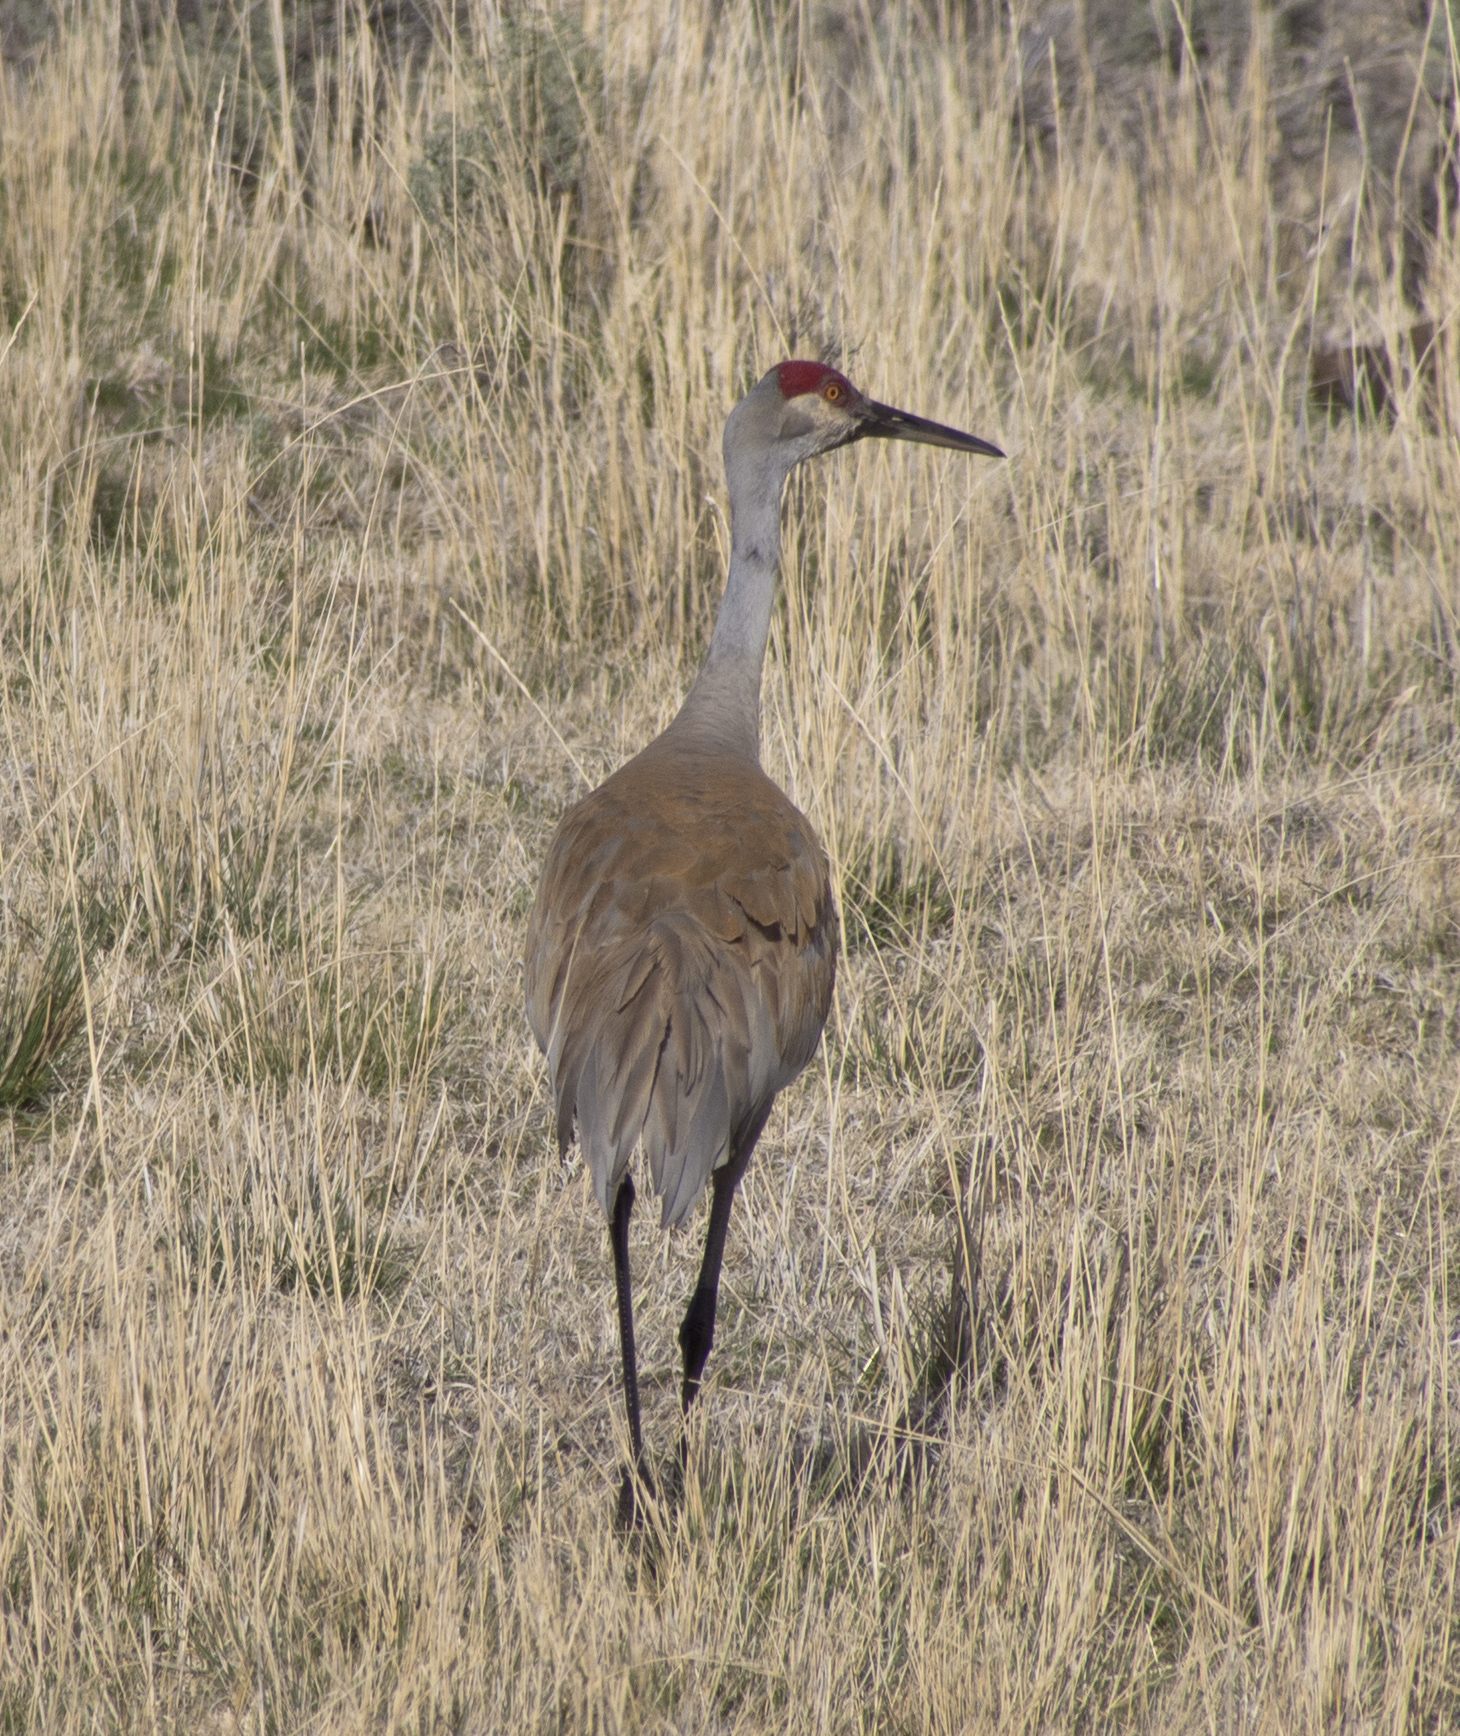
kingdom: Animalia
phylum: Chordata
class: Aves
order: Gruiformes
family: Gruidae
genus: Grus
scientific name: Grus canadensis
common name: Sandhill crane
